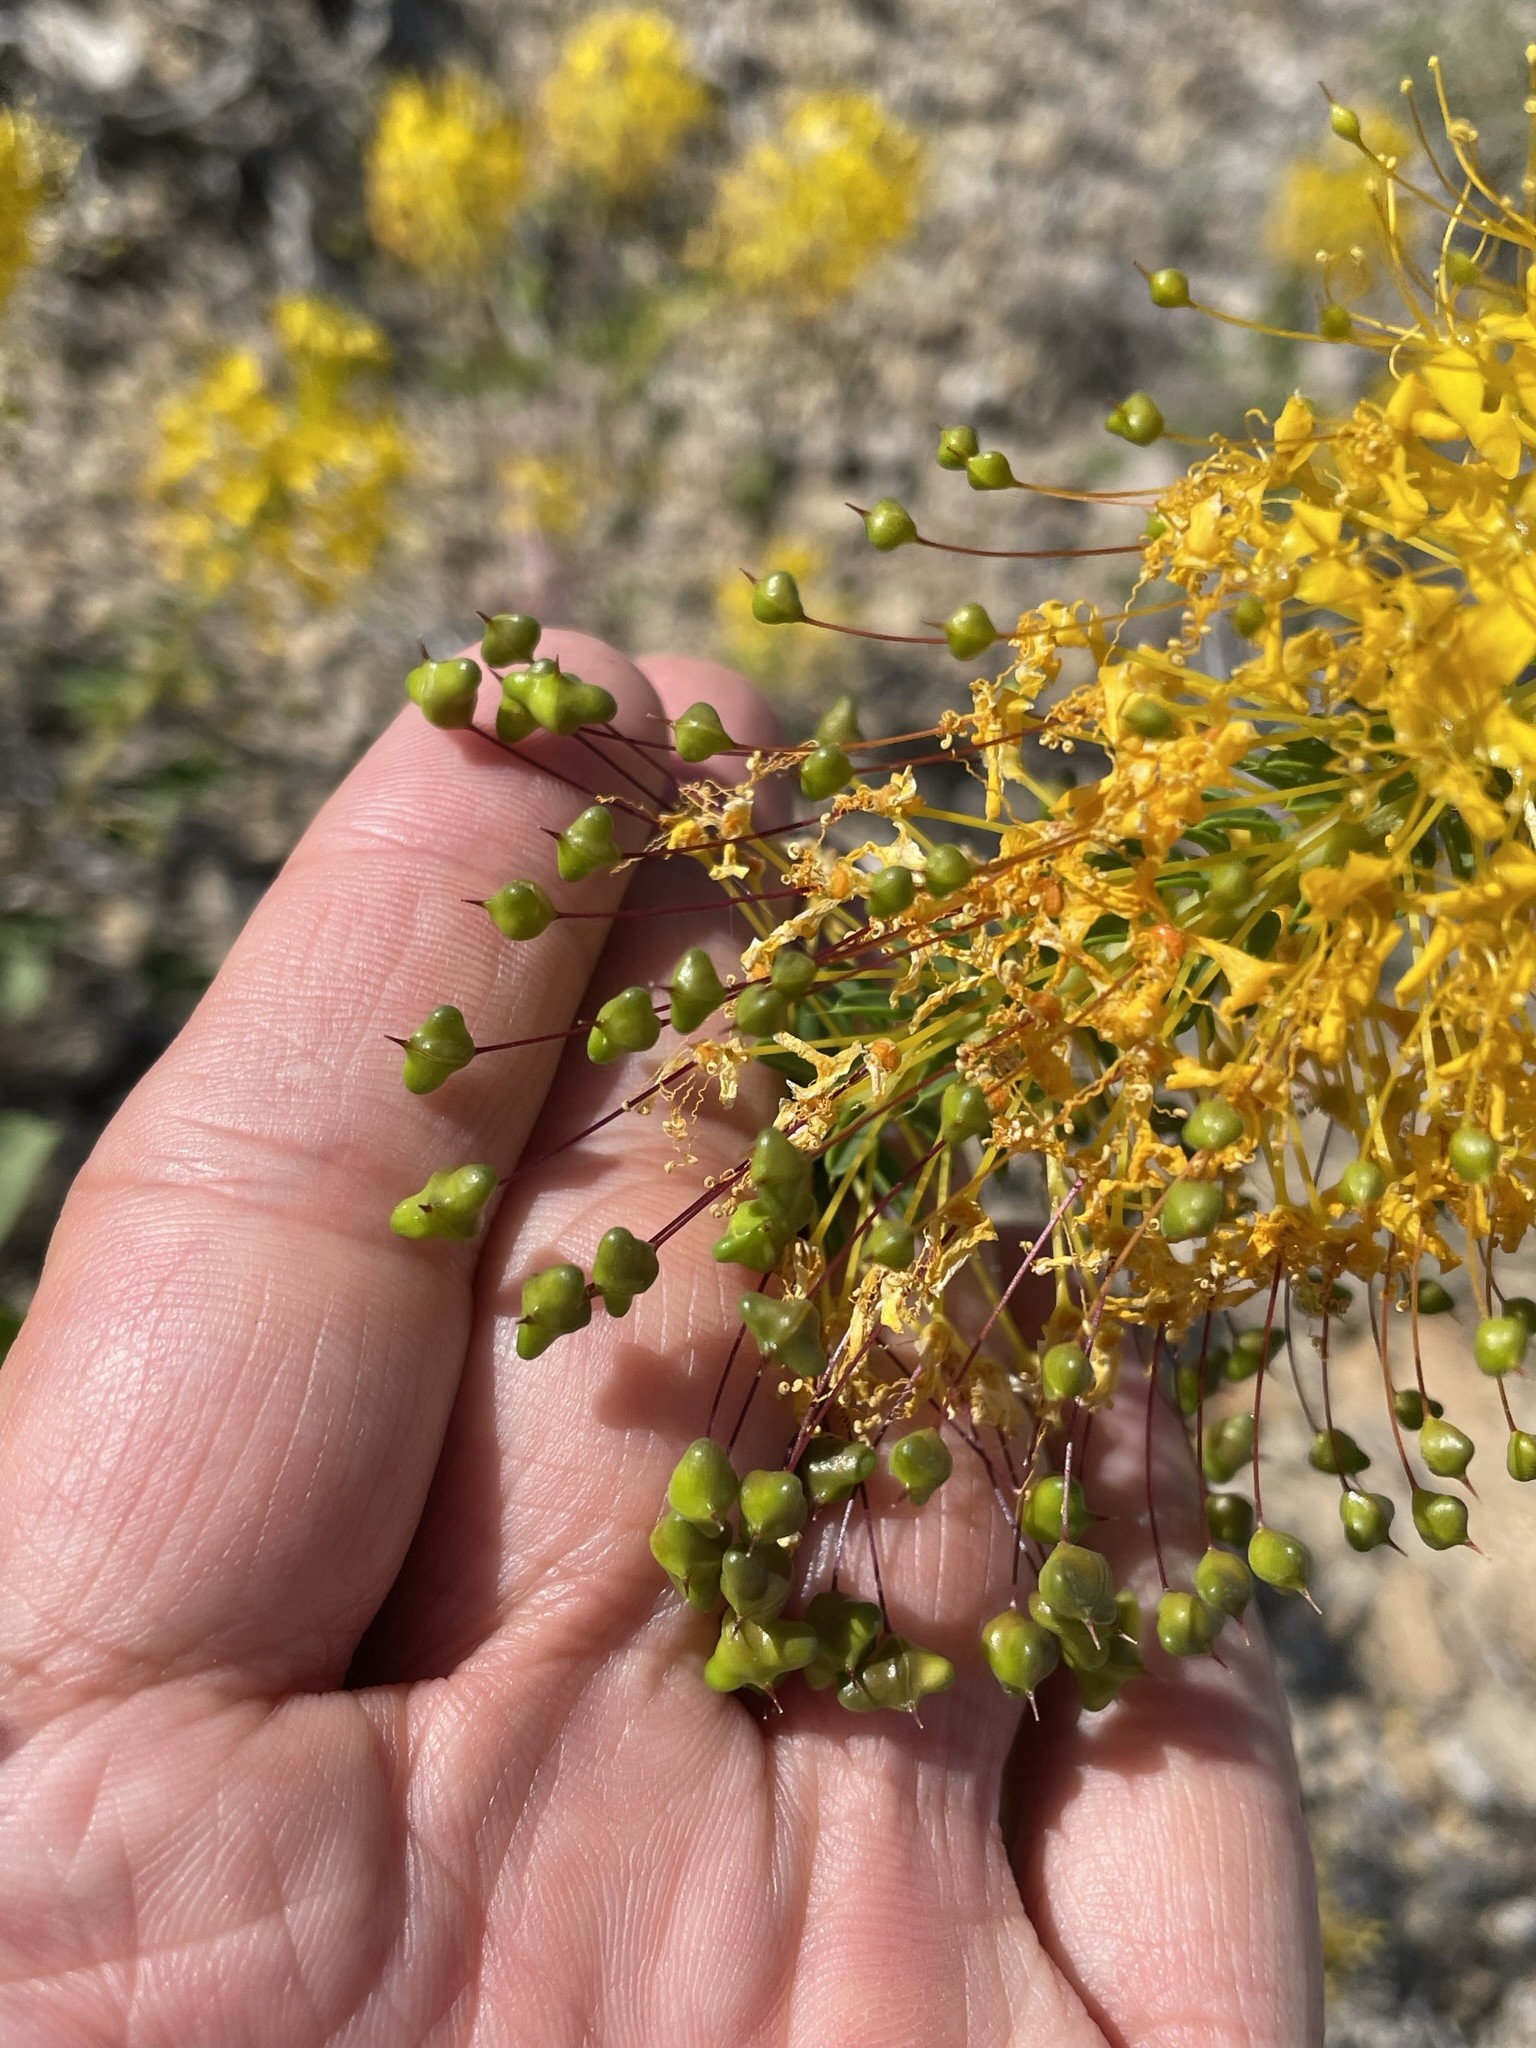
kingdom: Plantae
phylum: Tracheophyta
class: Magnoliopsida
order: Brassicales
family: Cleomaceae
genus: Cleomella
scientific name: Cleomella hillmanii
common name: Desert stinkweed
